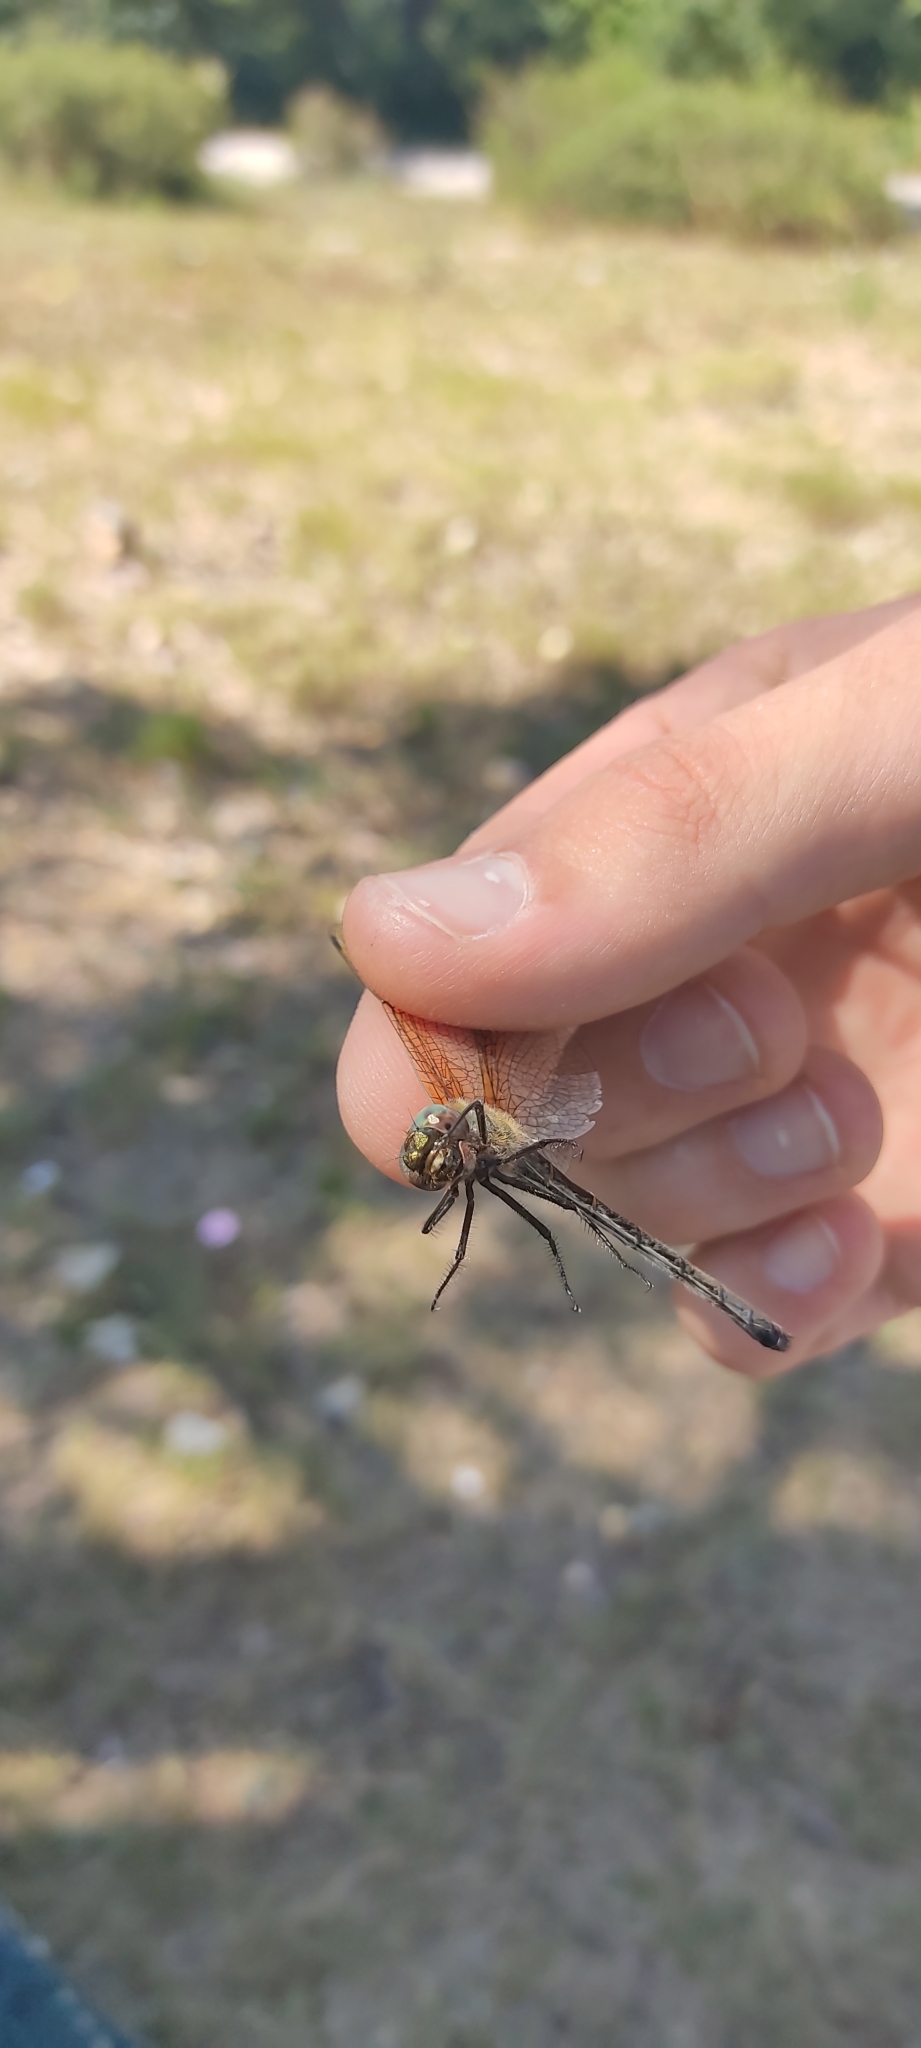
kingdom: Animalia
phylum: Arthropoda
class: Insecta
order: Odonata
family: Corduliidae
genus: Oxygastra
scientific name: Oxygastra curtisii
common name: Orange-spotted emerald
